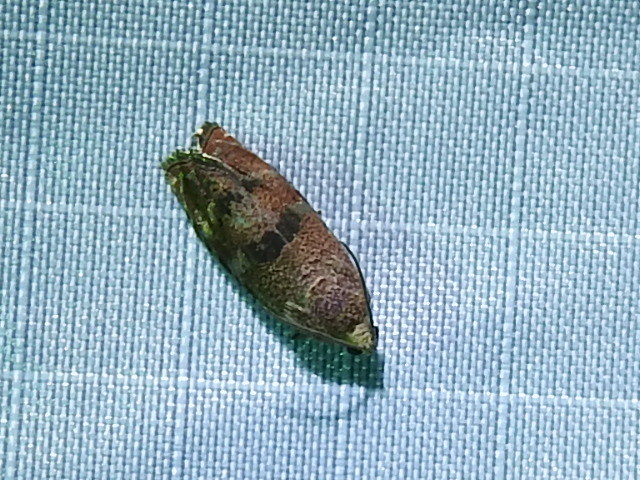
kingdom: Animalia
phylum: Arthropoda
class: Insecta
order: Lepidoptera
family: Tortricidae
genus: Cydia
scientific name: Cydia latiferreana
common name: Filbertworm moth
